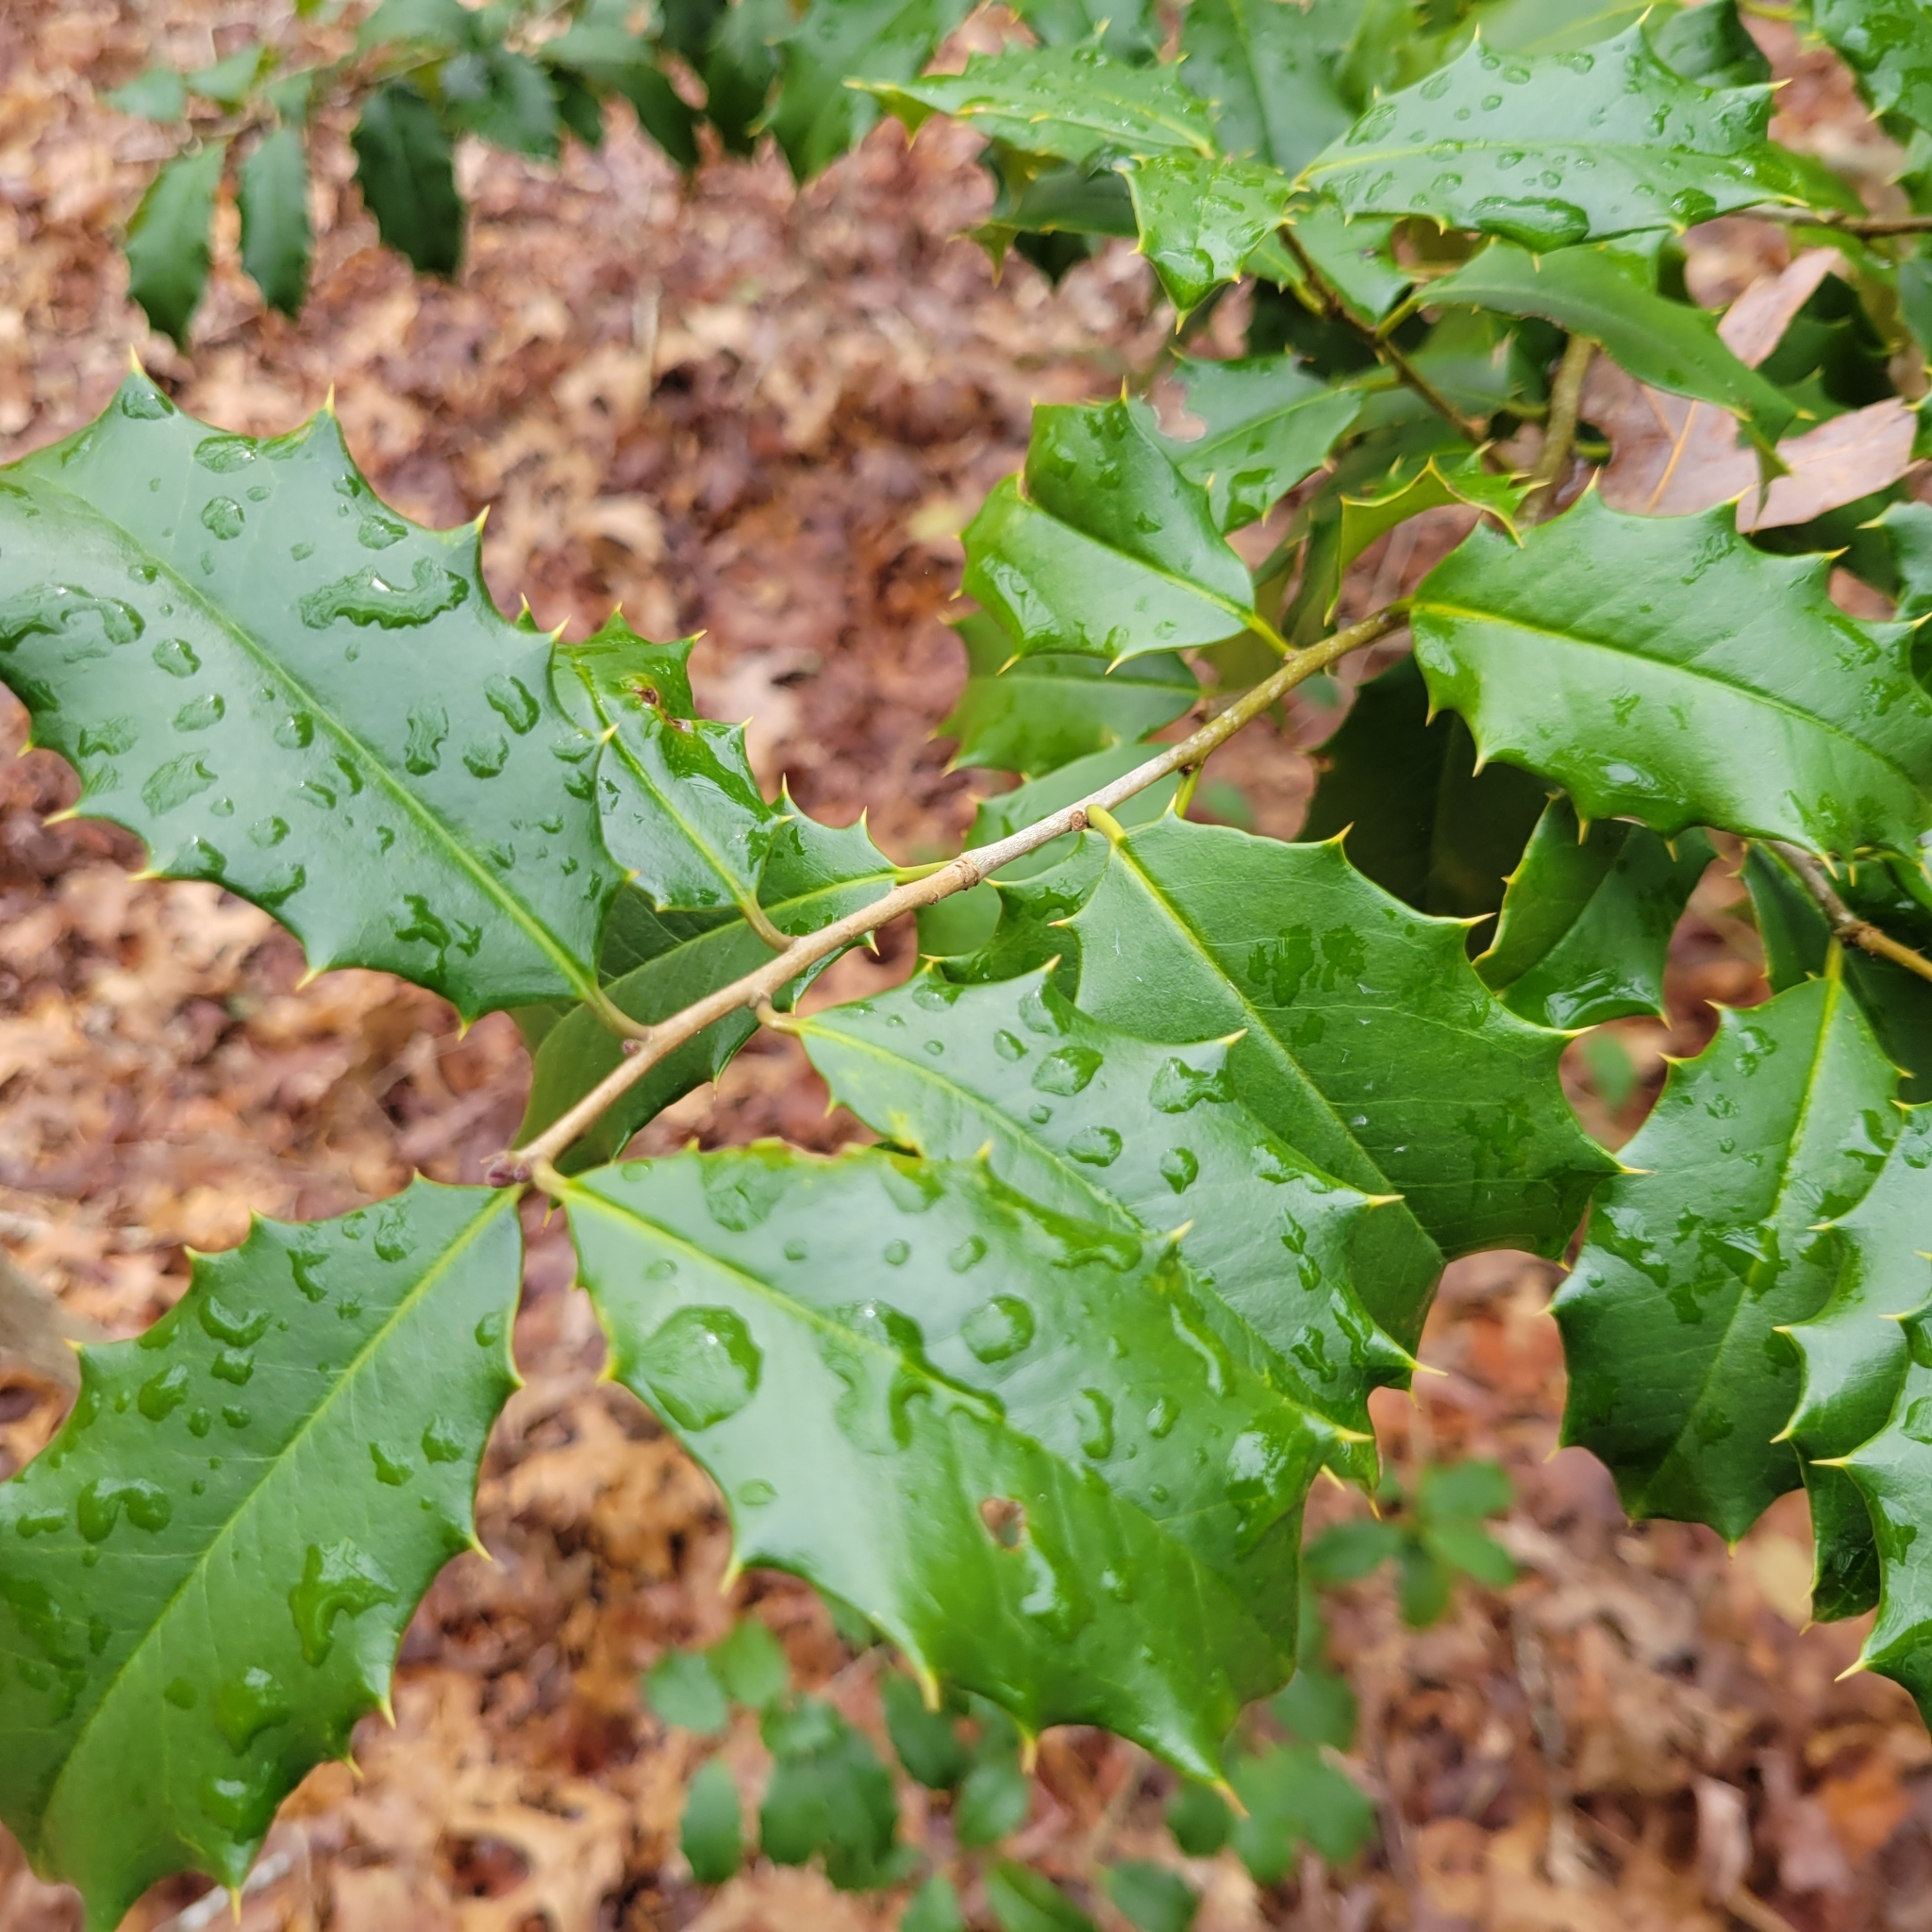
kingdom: Plantae
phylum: Tracheophyta
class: Magnoliopsida
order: Aquifoliales
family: Aquifoliaceae
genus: Ilex
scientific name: Ilex opaca
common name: American holly
